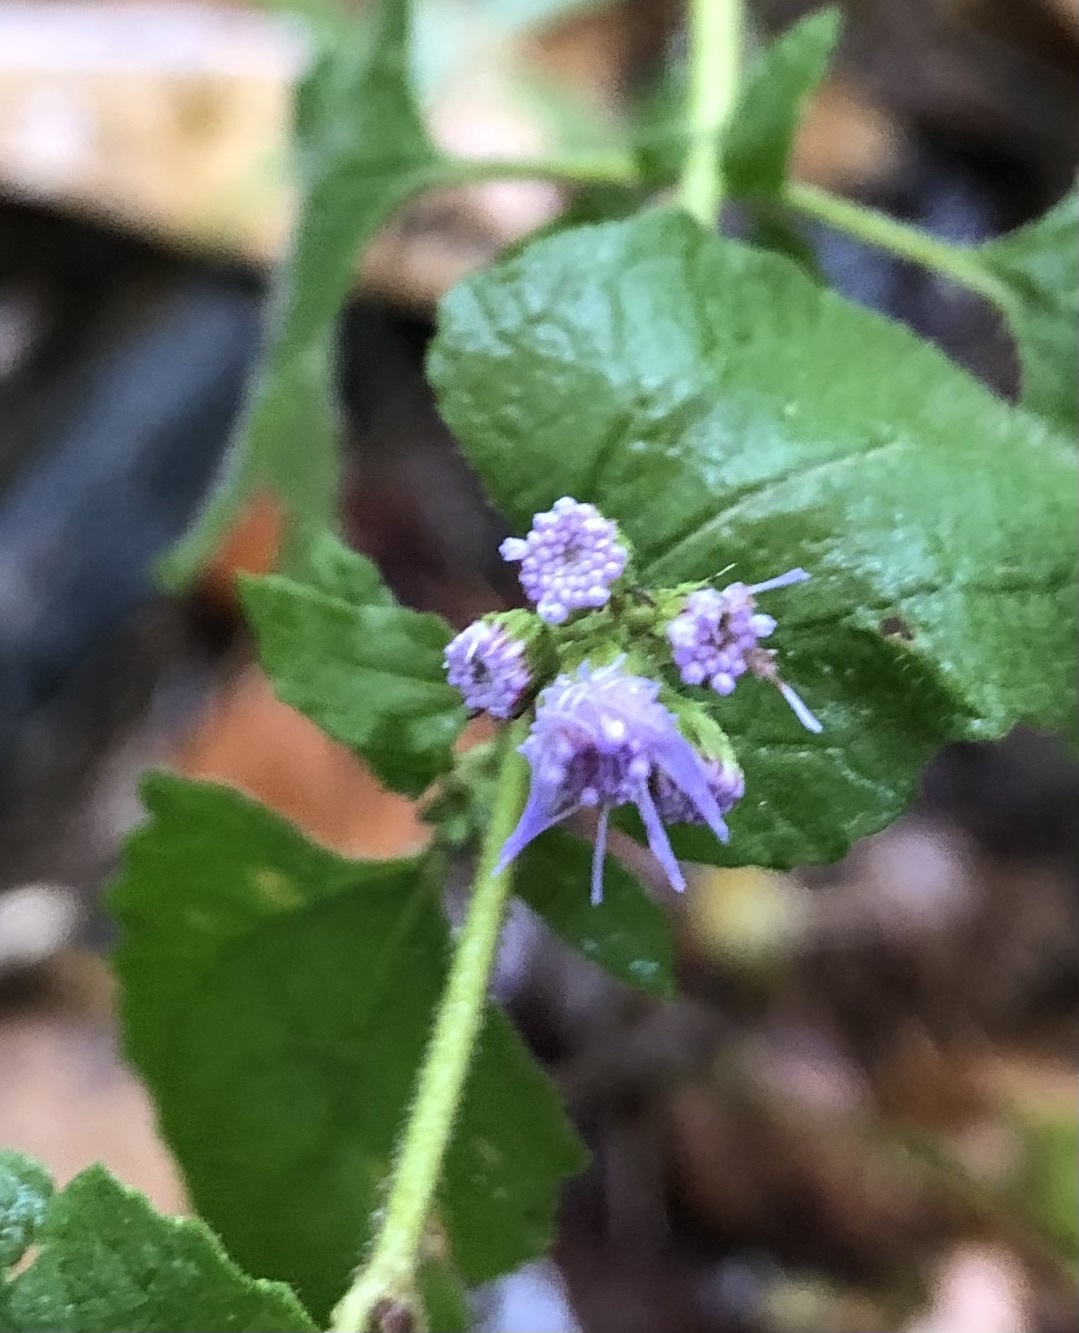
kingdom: Plantae
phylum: Tracheophyta
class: Magnoliopsida
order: Asterales
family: Asteraceae
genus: Conoclinium
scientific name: Conoclinium coelestinum
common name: Blue mistflower
